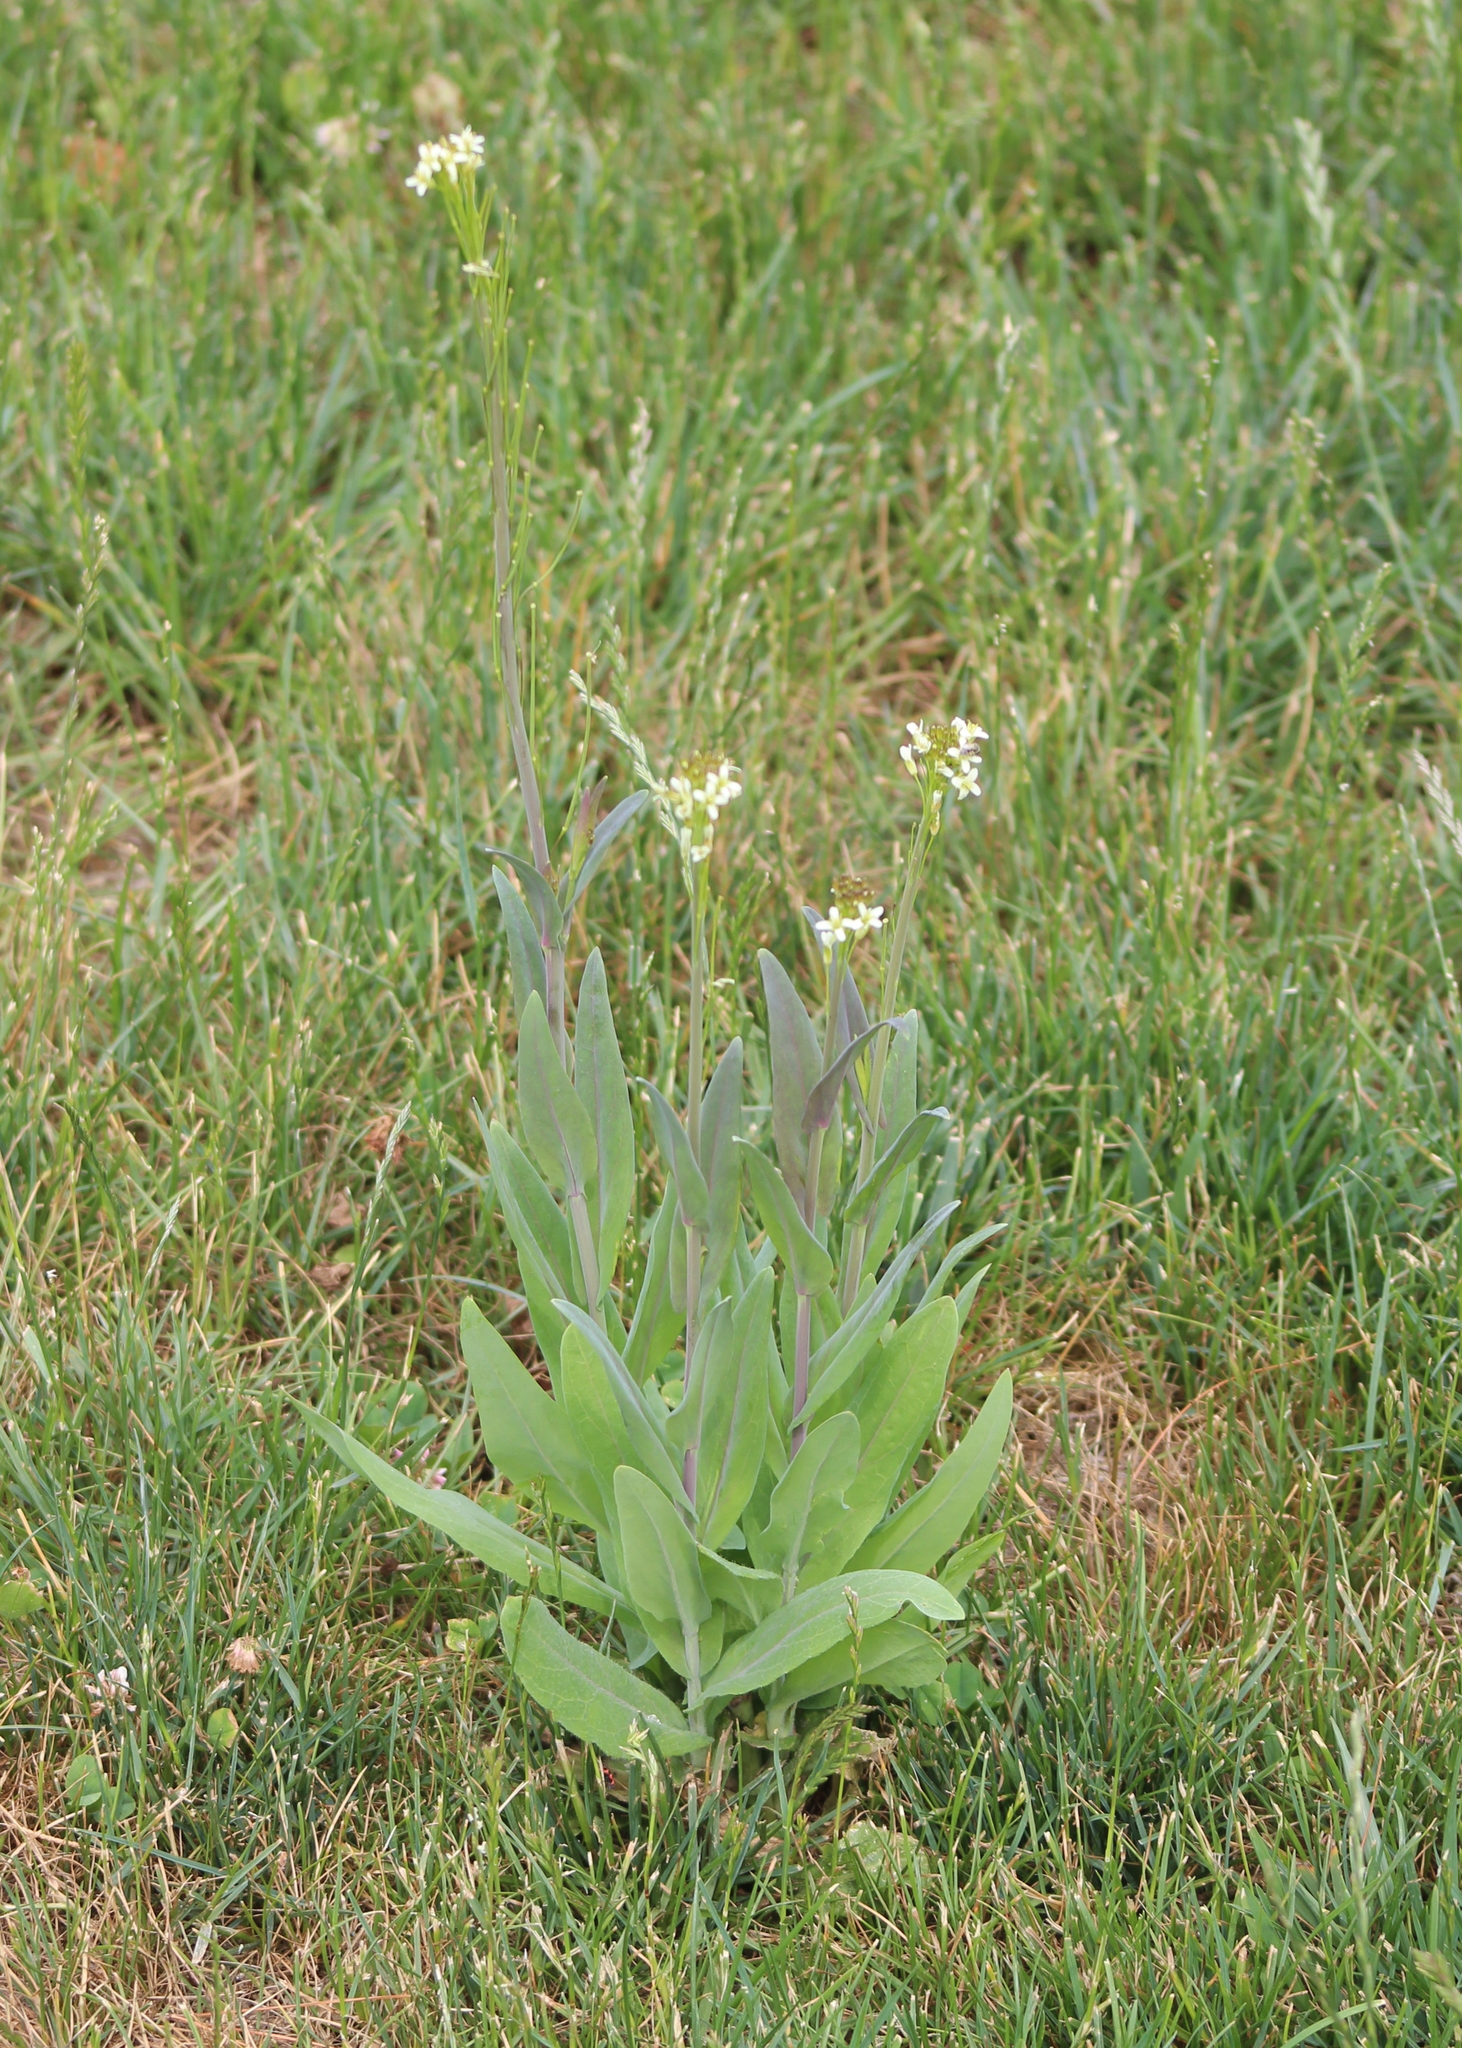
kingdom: Plantae
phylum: Tracheophyta
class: Magnoliopsida
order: Brassicales
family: Brassicaceae
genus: Turritis
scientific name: Turritis glabra
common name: Tower rockcress
